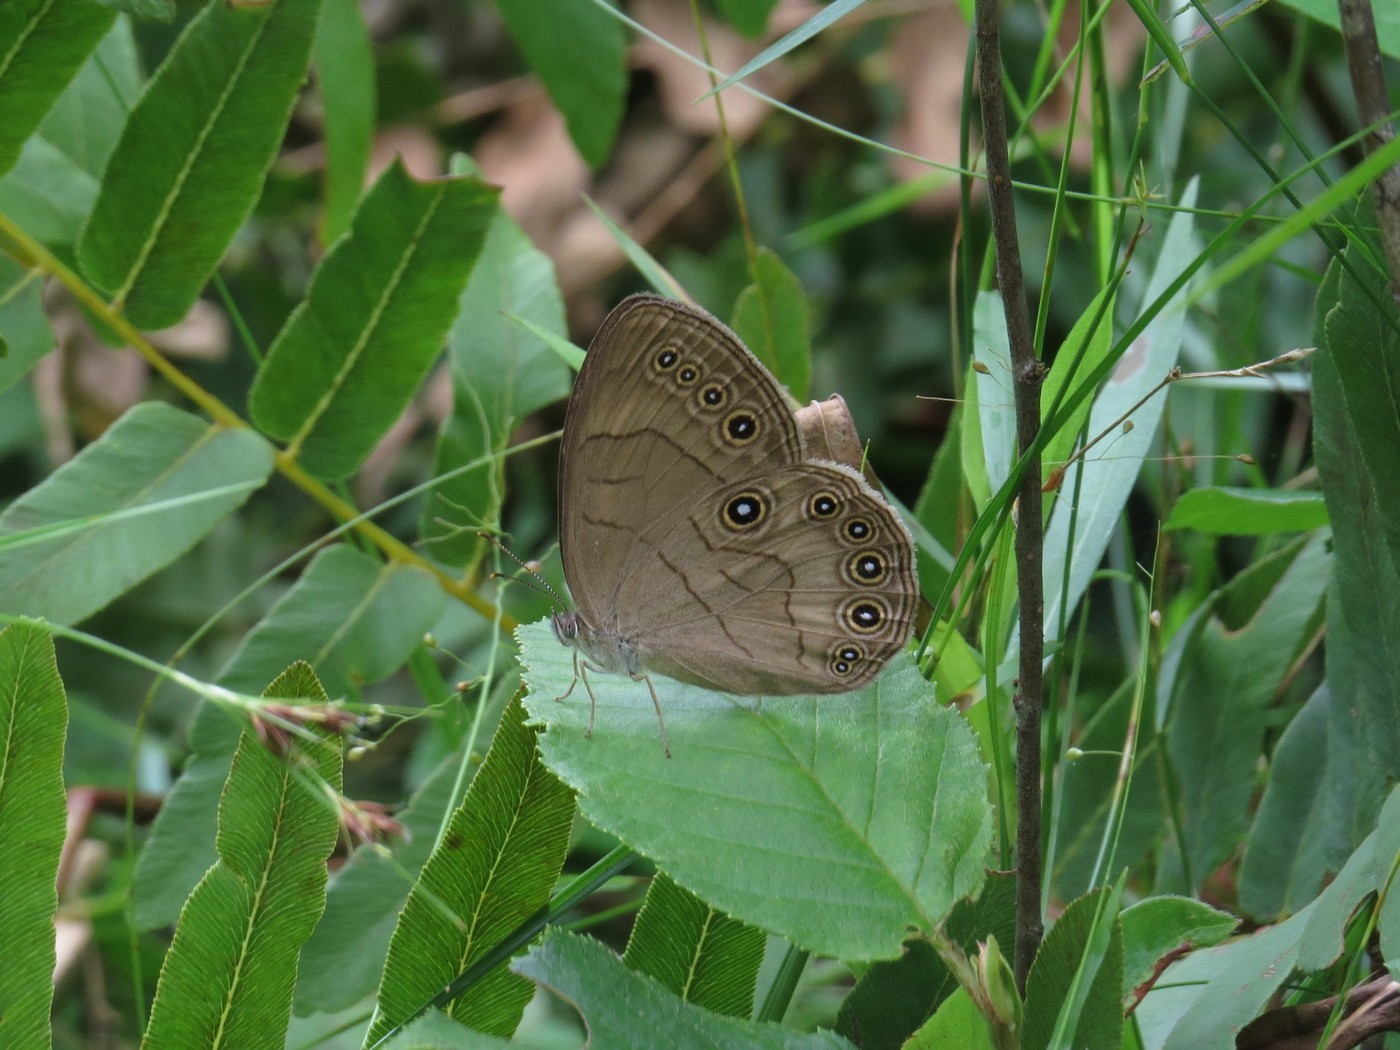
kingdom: Animalia
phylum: Arthropoda
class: Insecta
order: Lepidoptera
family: Nymphalidae
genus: Lethe
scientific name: Lethe eurydice
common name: Eyed brown
